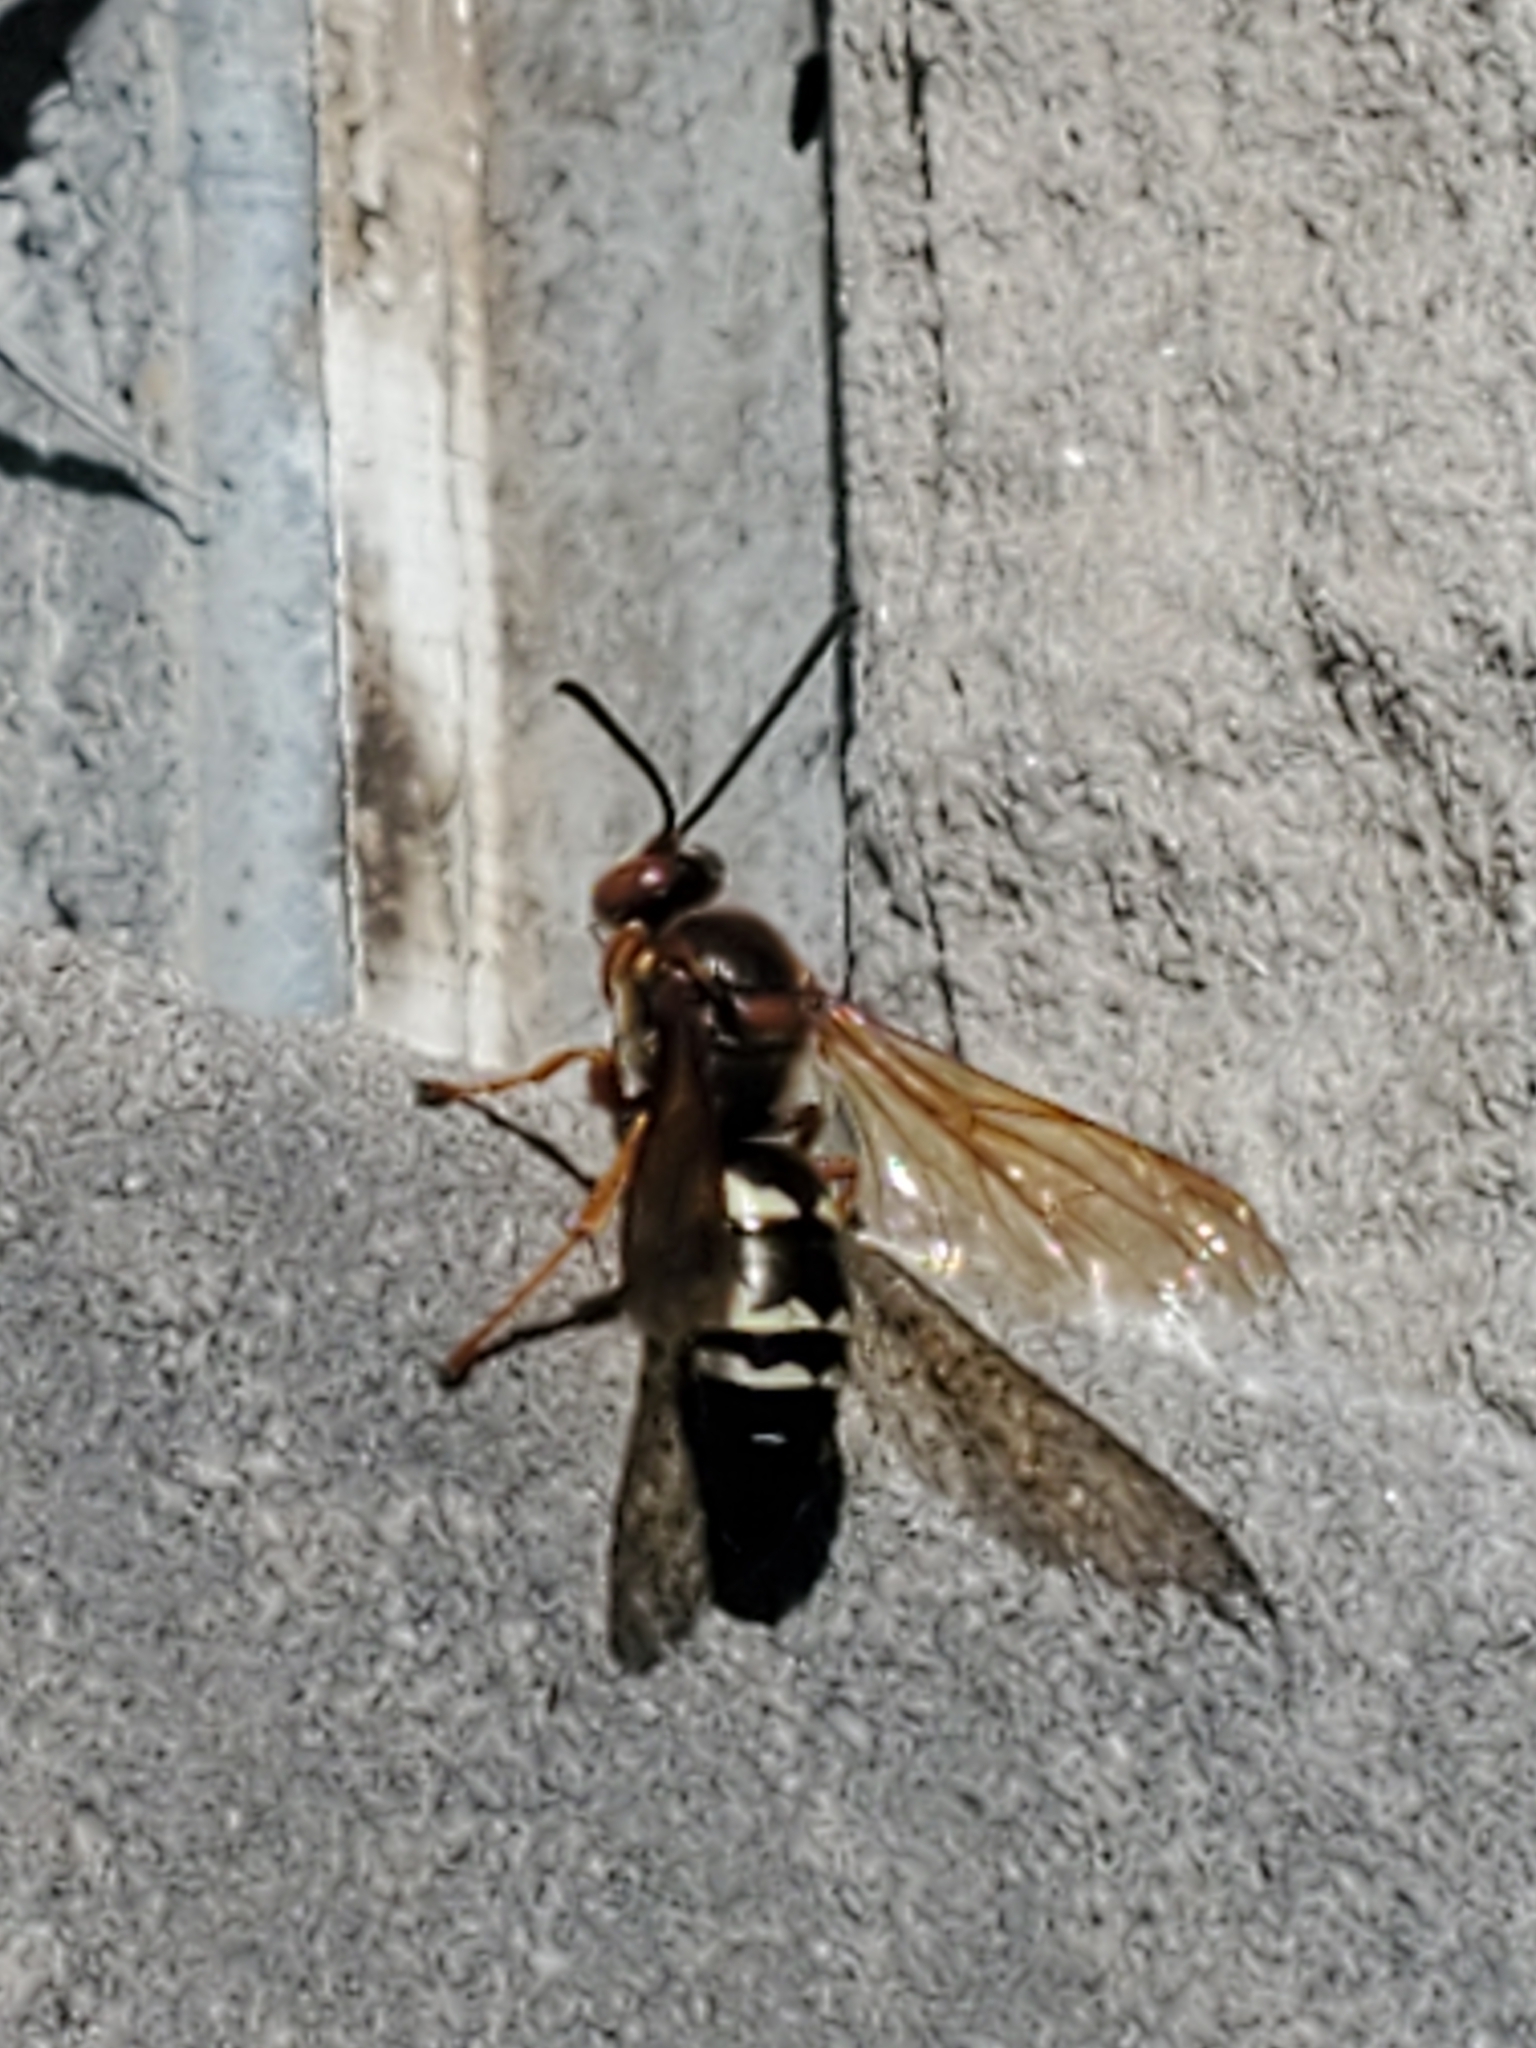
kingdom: Animalia
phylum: Arthropoda
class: Insecta
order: Hymenoptera
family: Crabronidae
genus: Sphecius
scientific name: Sphecius speciosus
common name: Cicada killer
